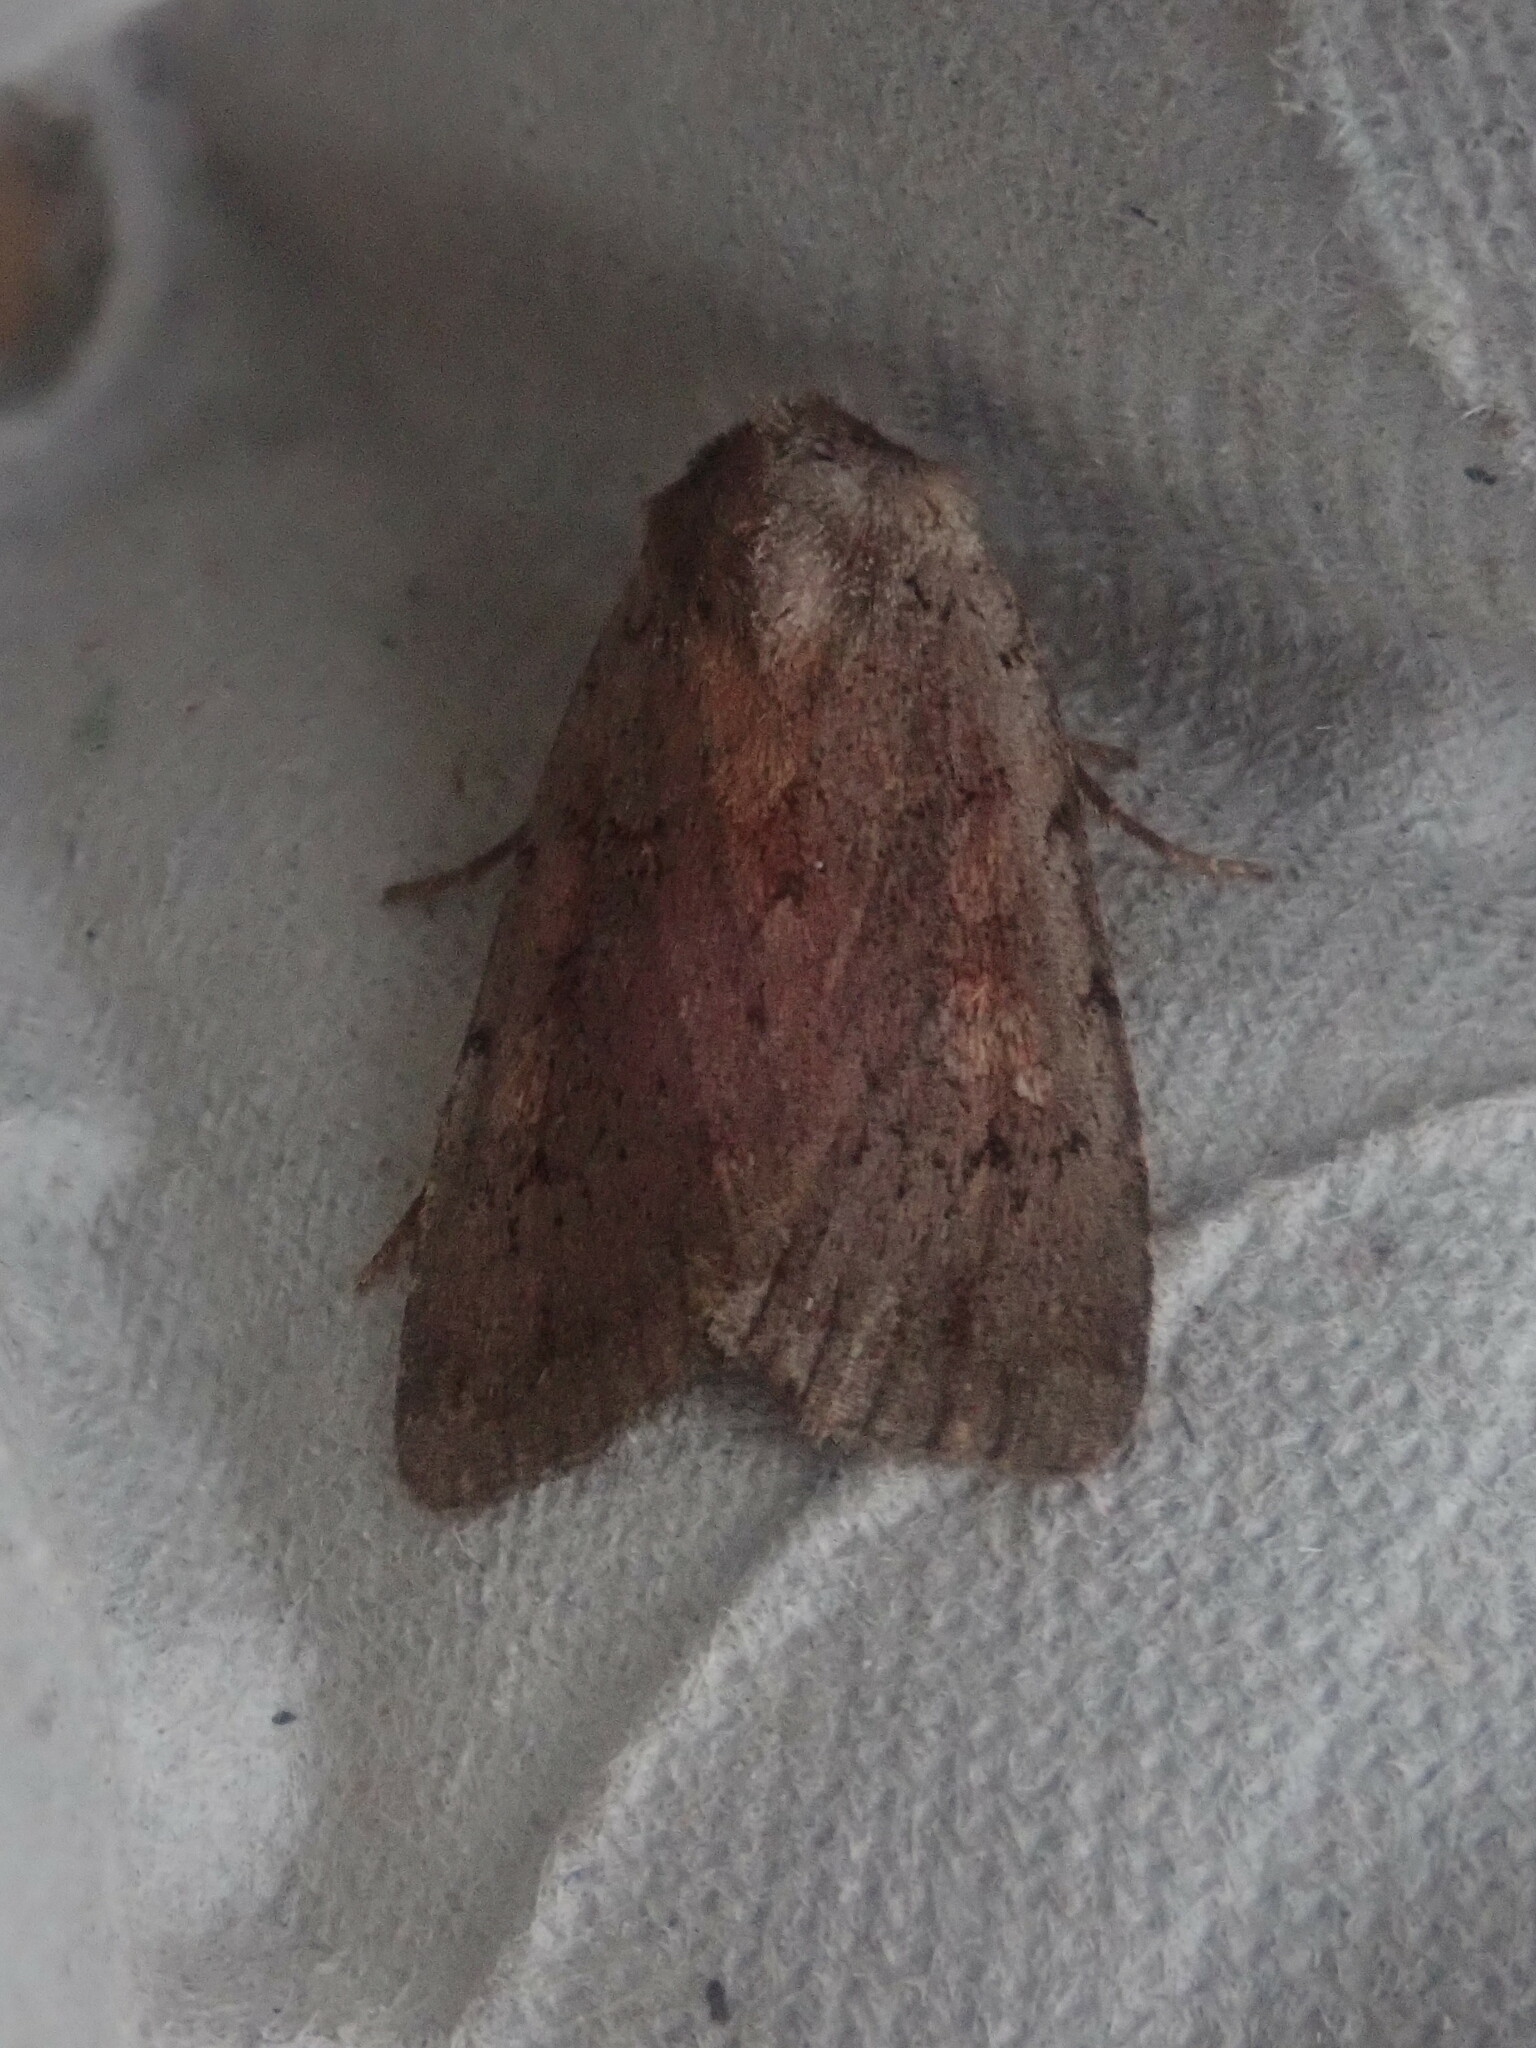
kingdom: Animalia
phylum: Arthropoda
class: Insecta
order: Lepidoptera
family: Noctuidae
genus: Xestia
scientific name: Xestia dilucida
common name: Dull reddish dart
